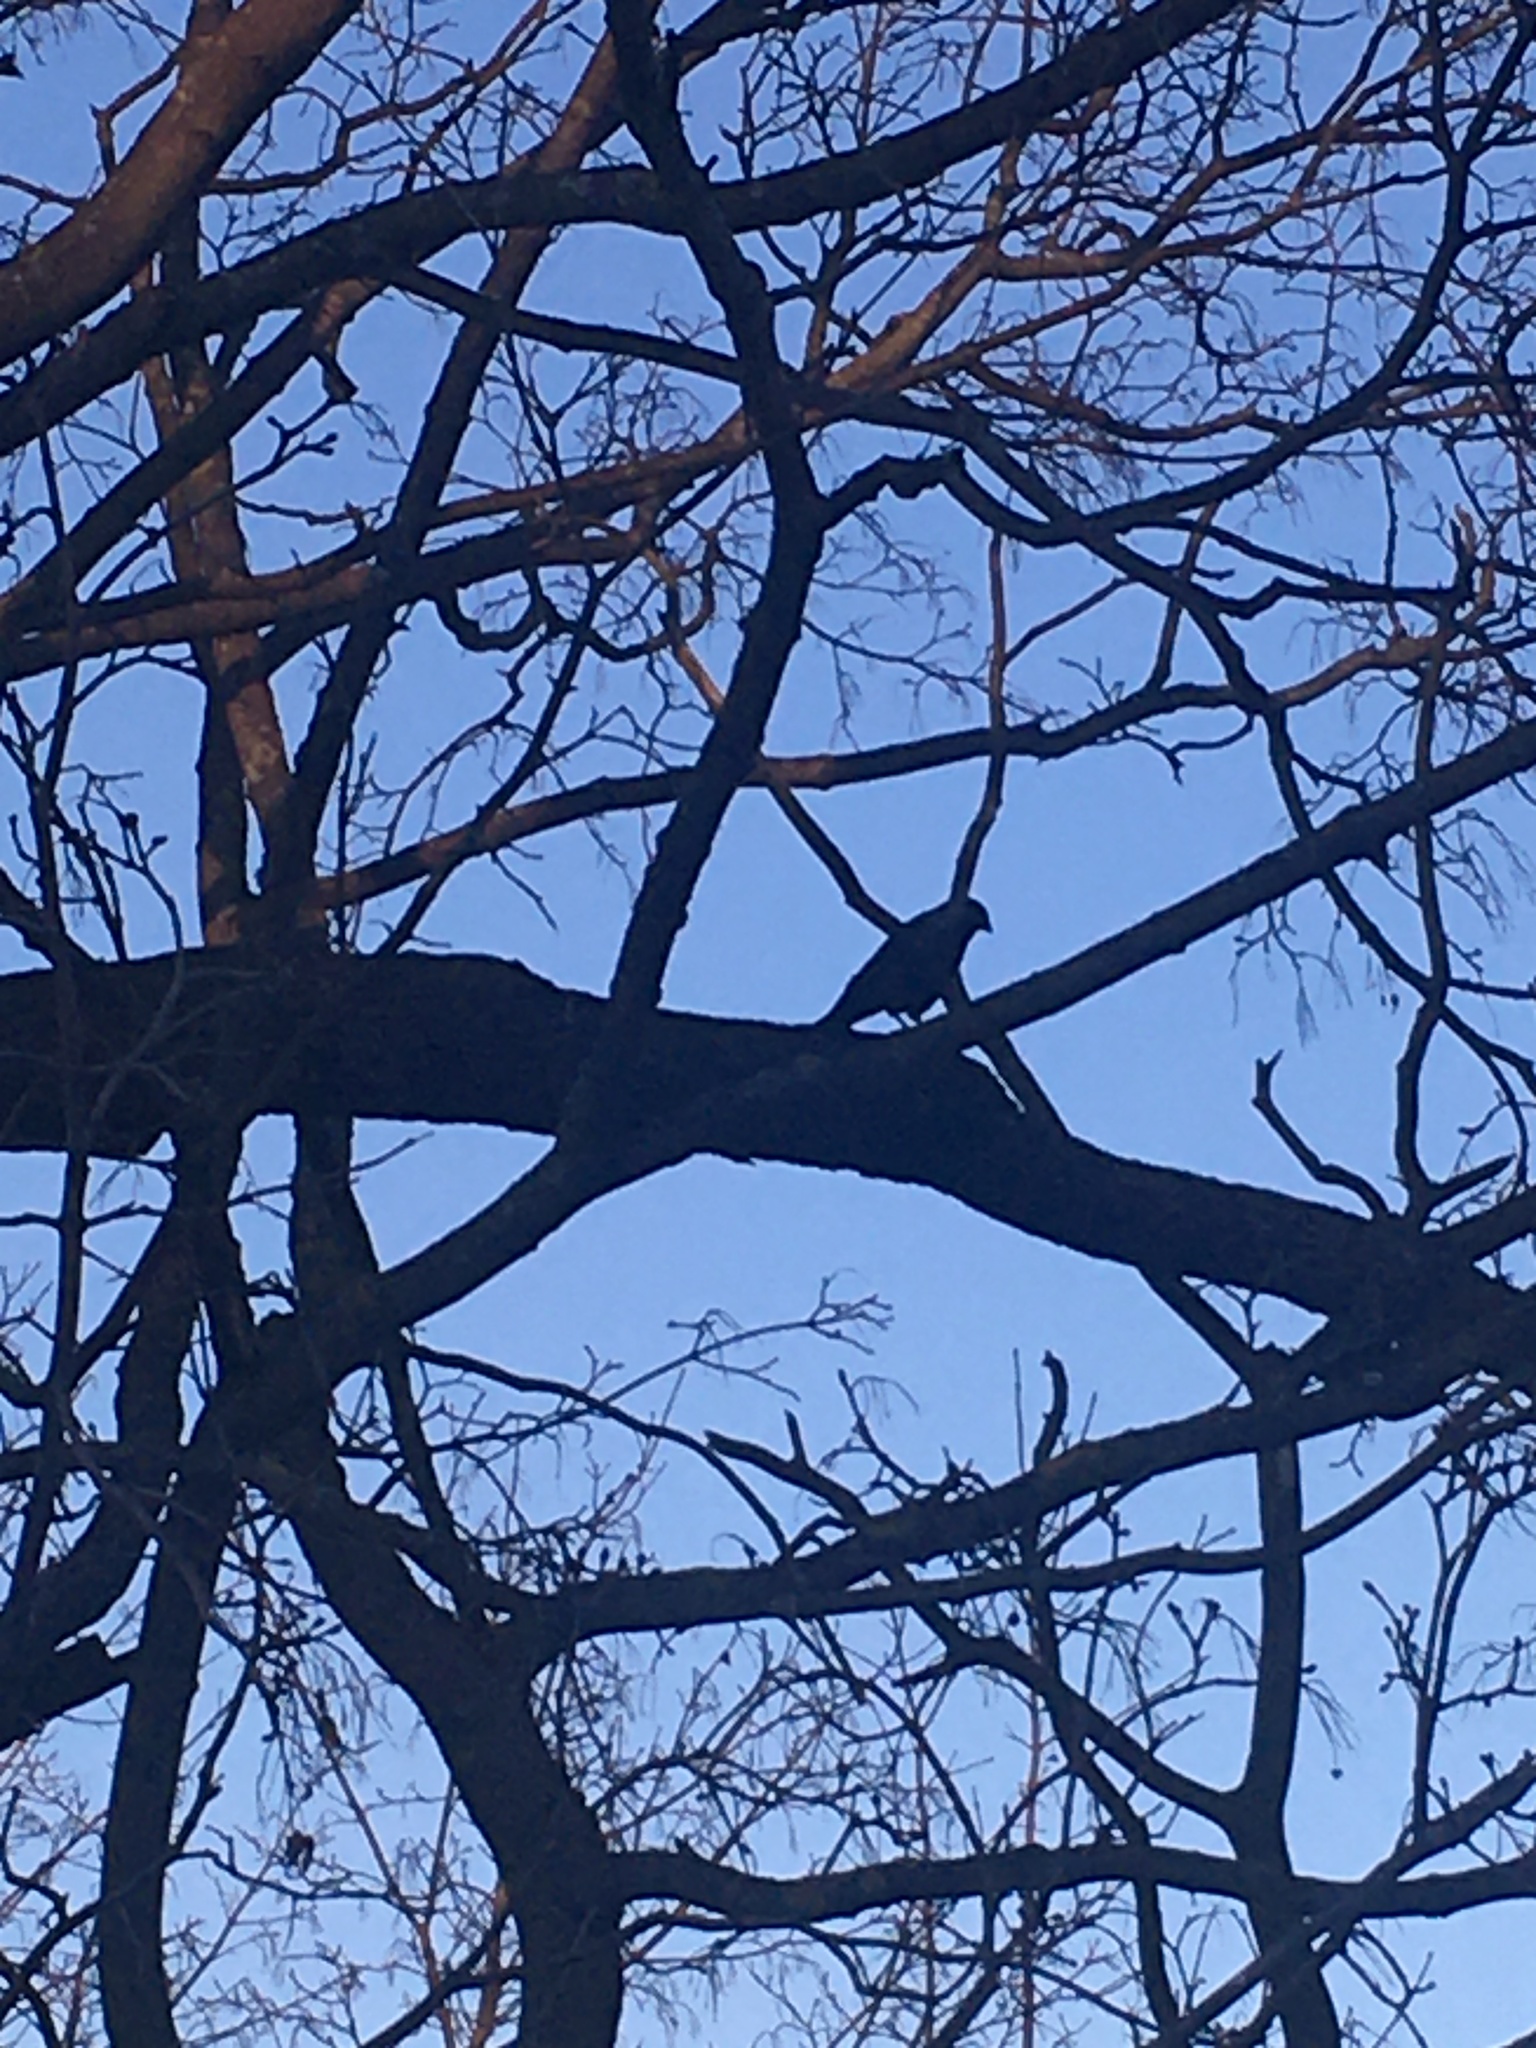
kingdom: Animalia
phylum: Chordata
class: Aves
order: Passeriformes
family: Corvidae
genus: Coloeus
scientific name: Coloeus monedula
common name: Western jackdaw
